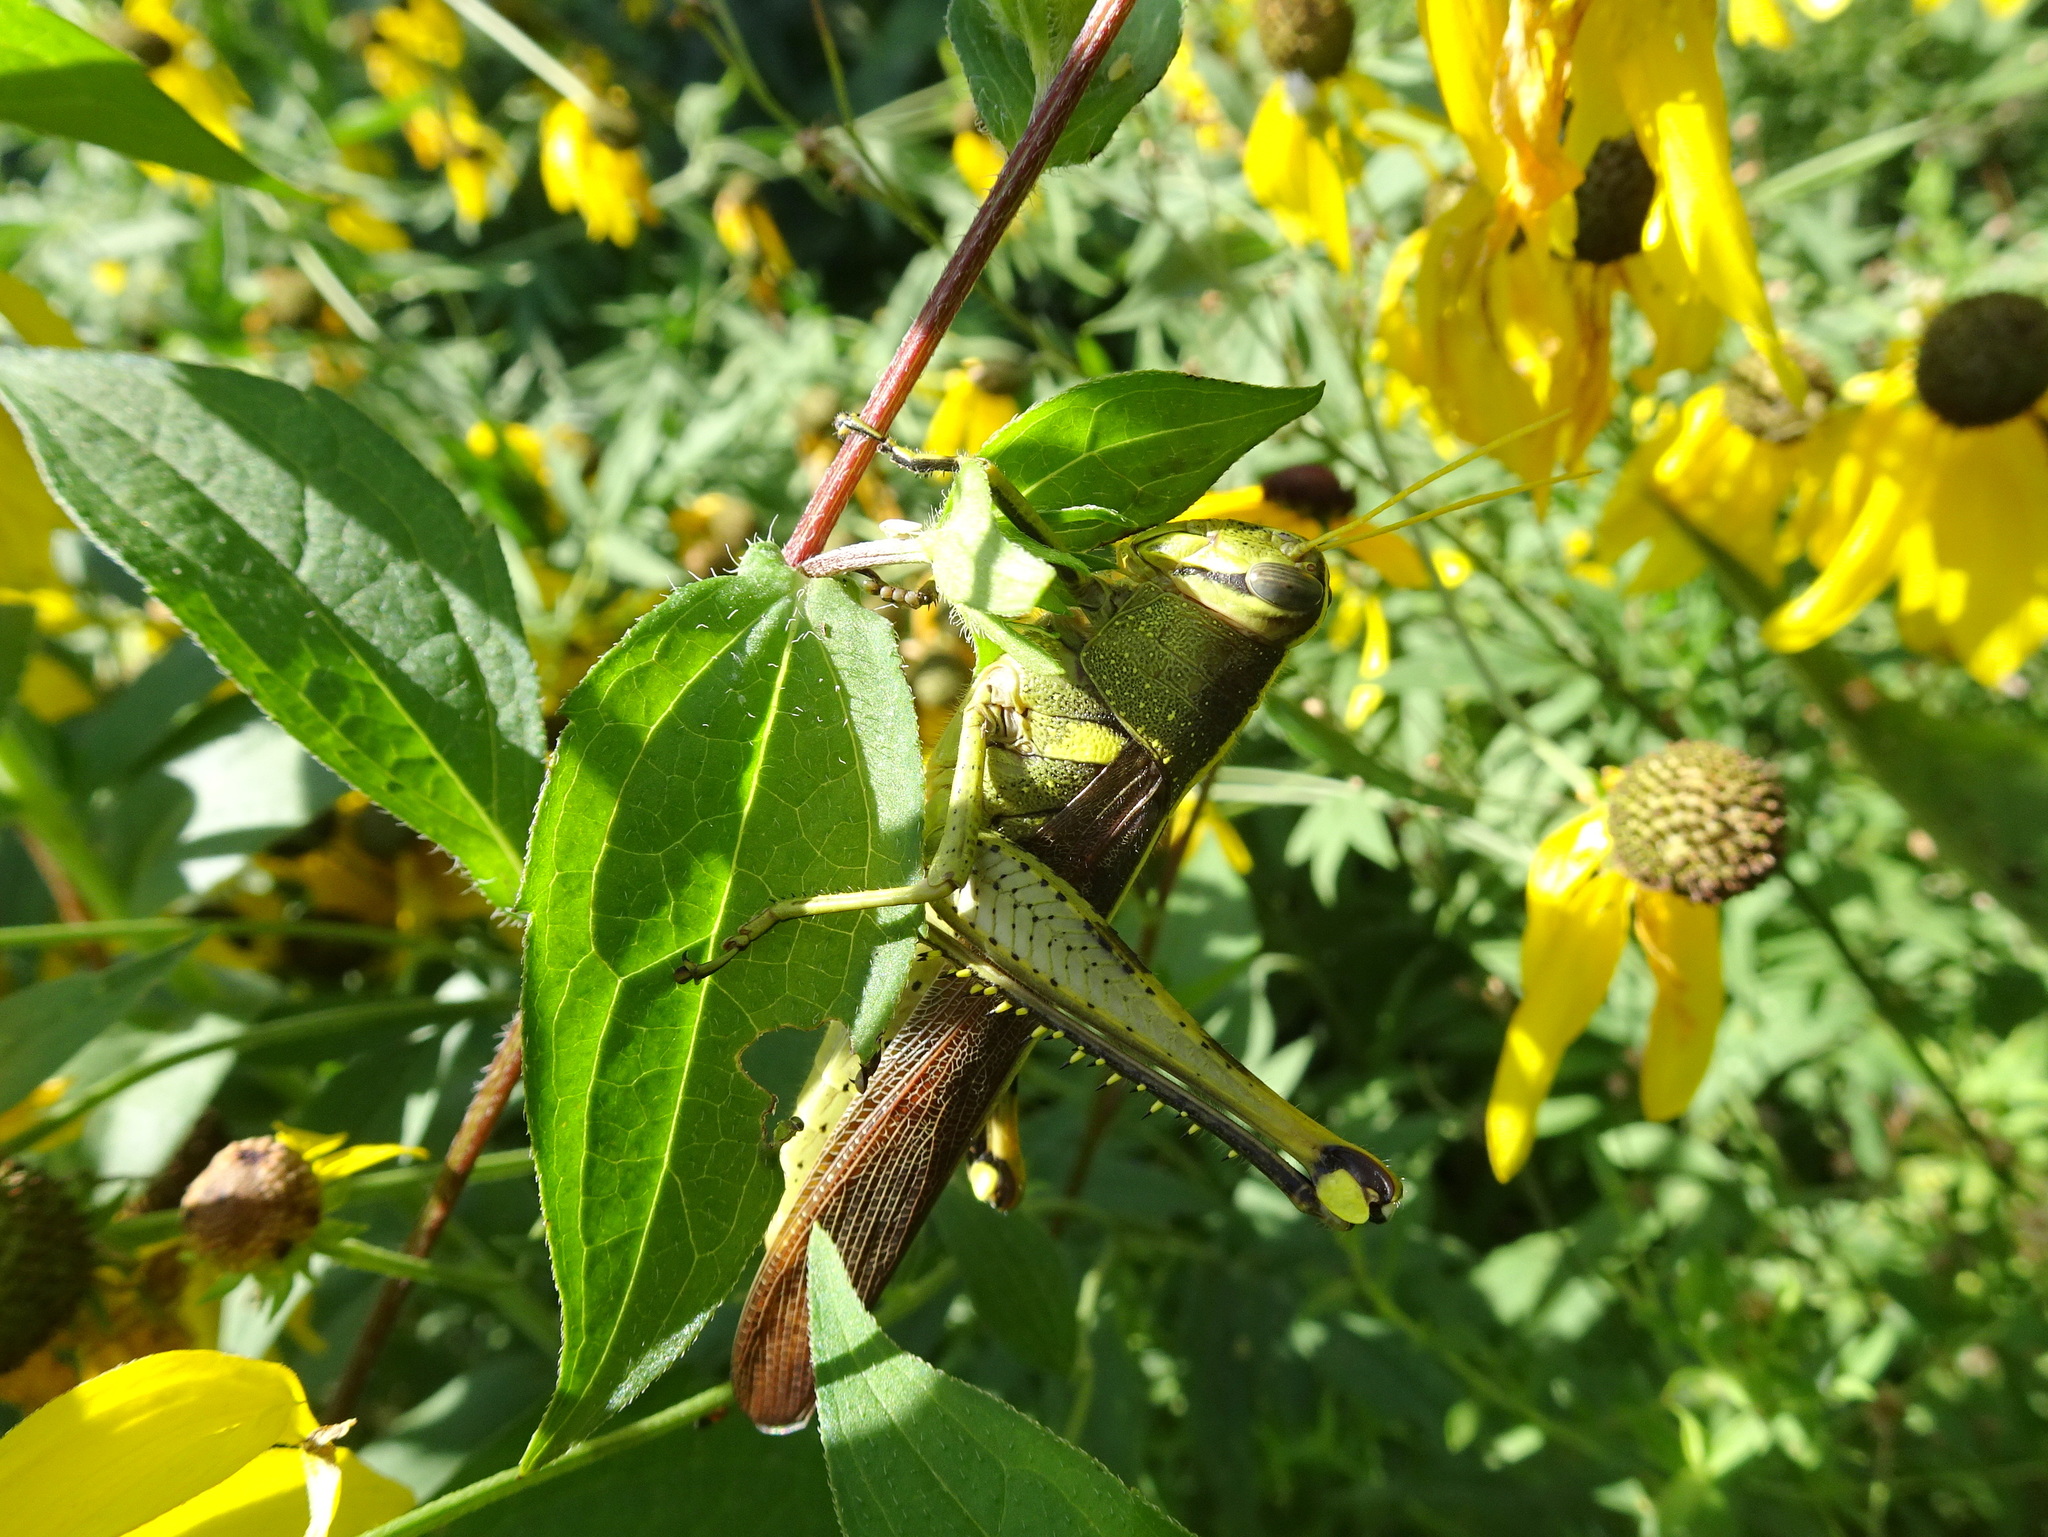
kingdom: Animalia
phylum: Arthropoda
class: Insecta
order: Orthoptera
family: Acrididae
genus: Schistocerca
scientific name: Schistocerca obscura
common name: Obscure bird grasshopper
